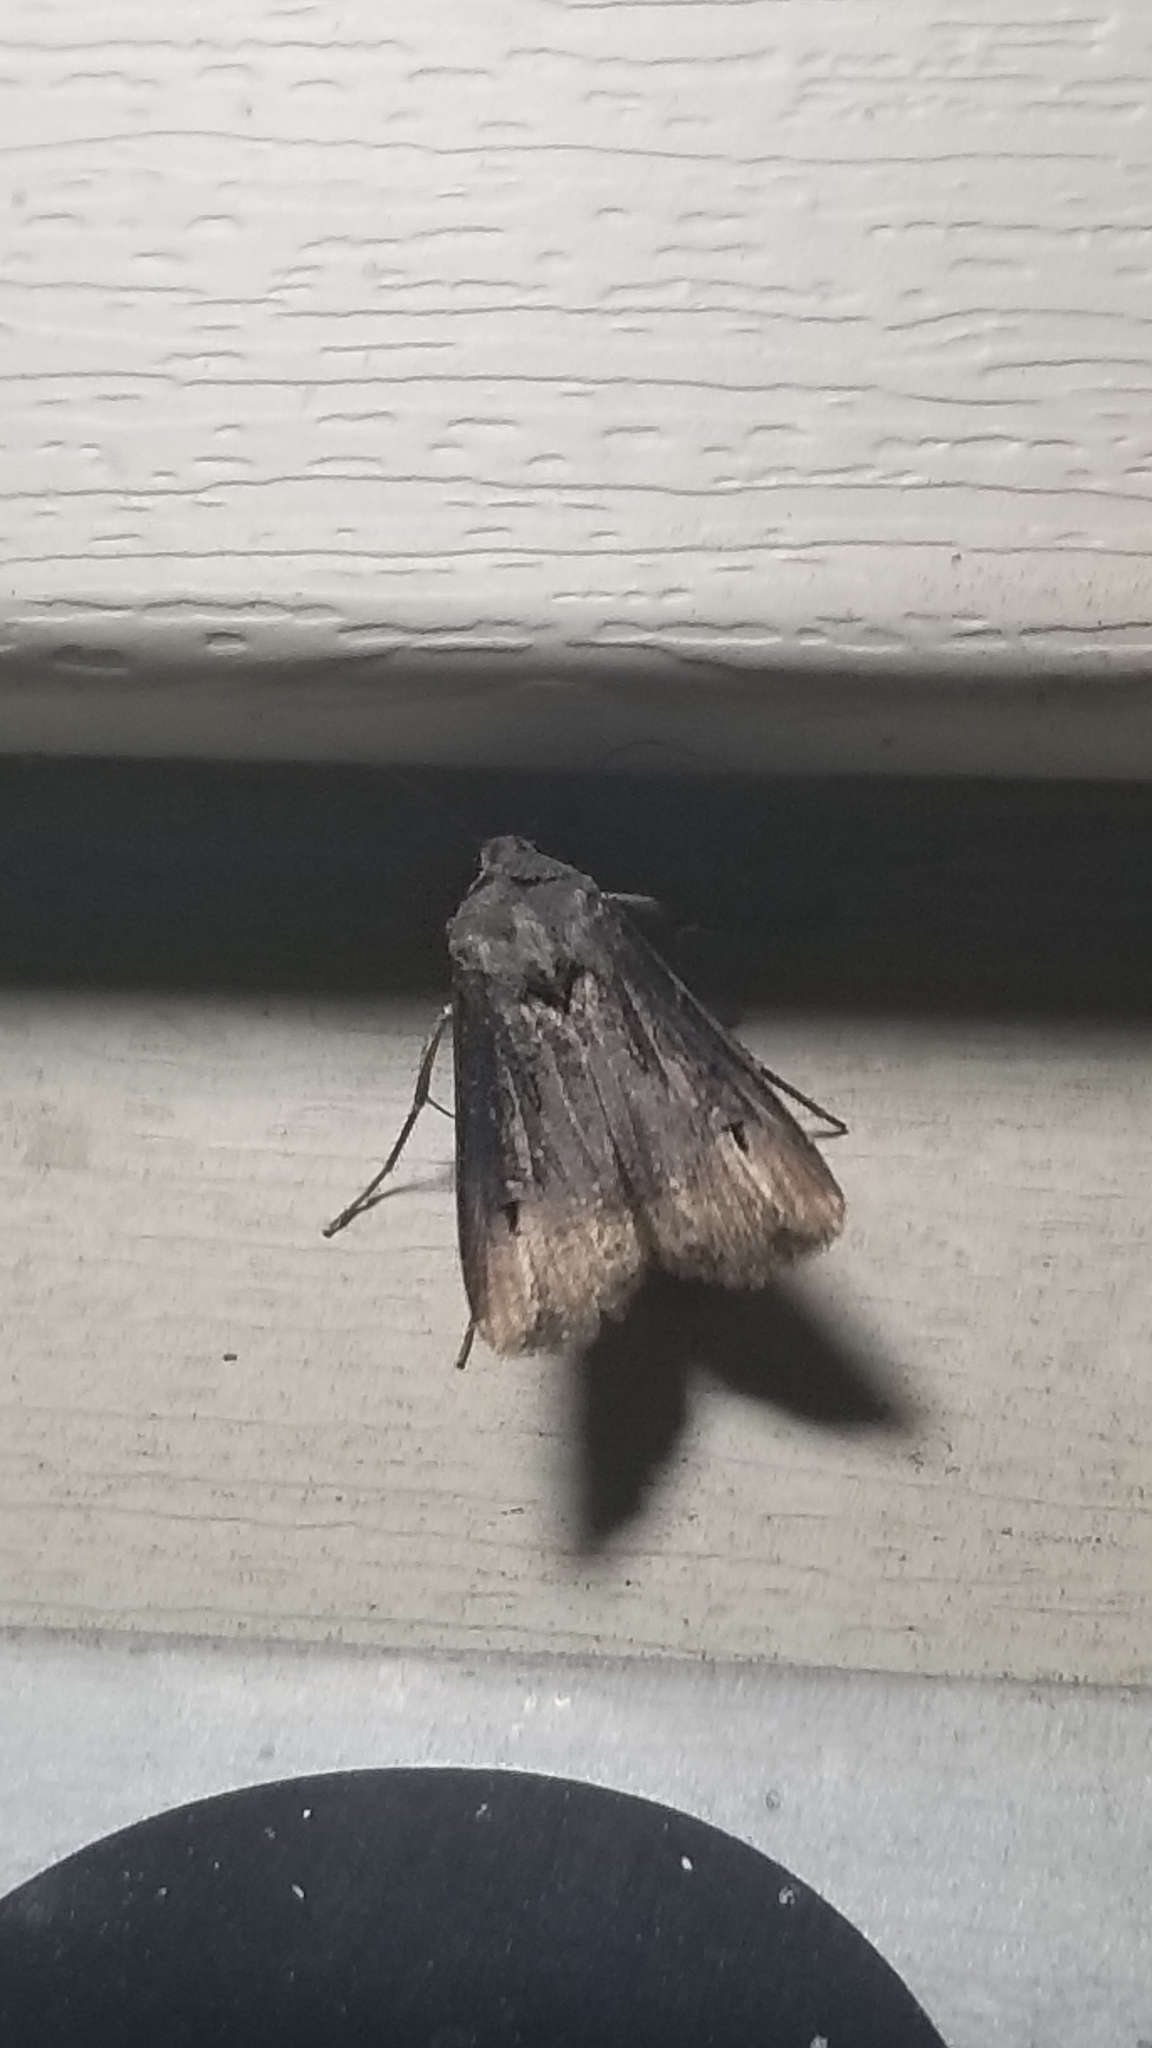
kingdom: Animalia
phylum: Arthropoda
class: Insecta
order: Lepidoptera
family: Noctuidae
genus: Agrotis
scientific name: Agrotis ipsilon
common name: Dark sword-grass
